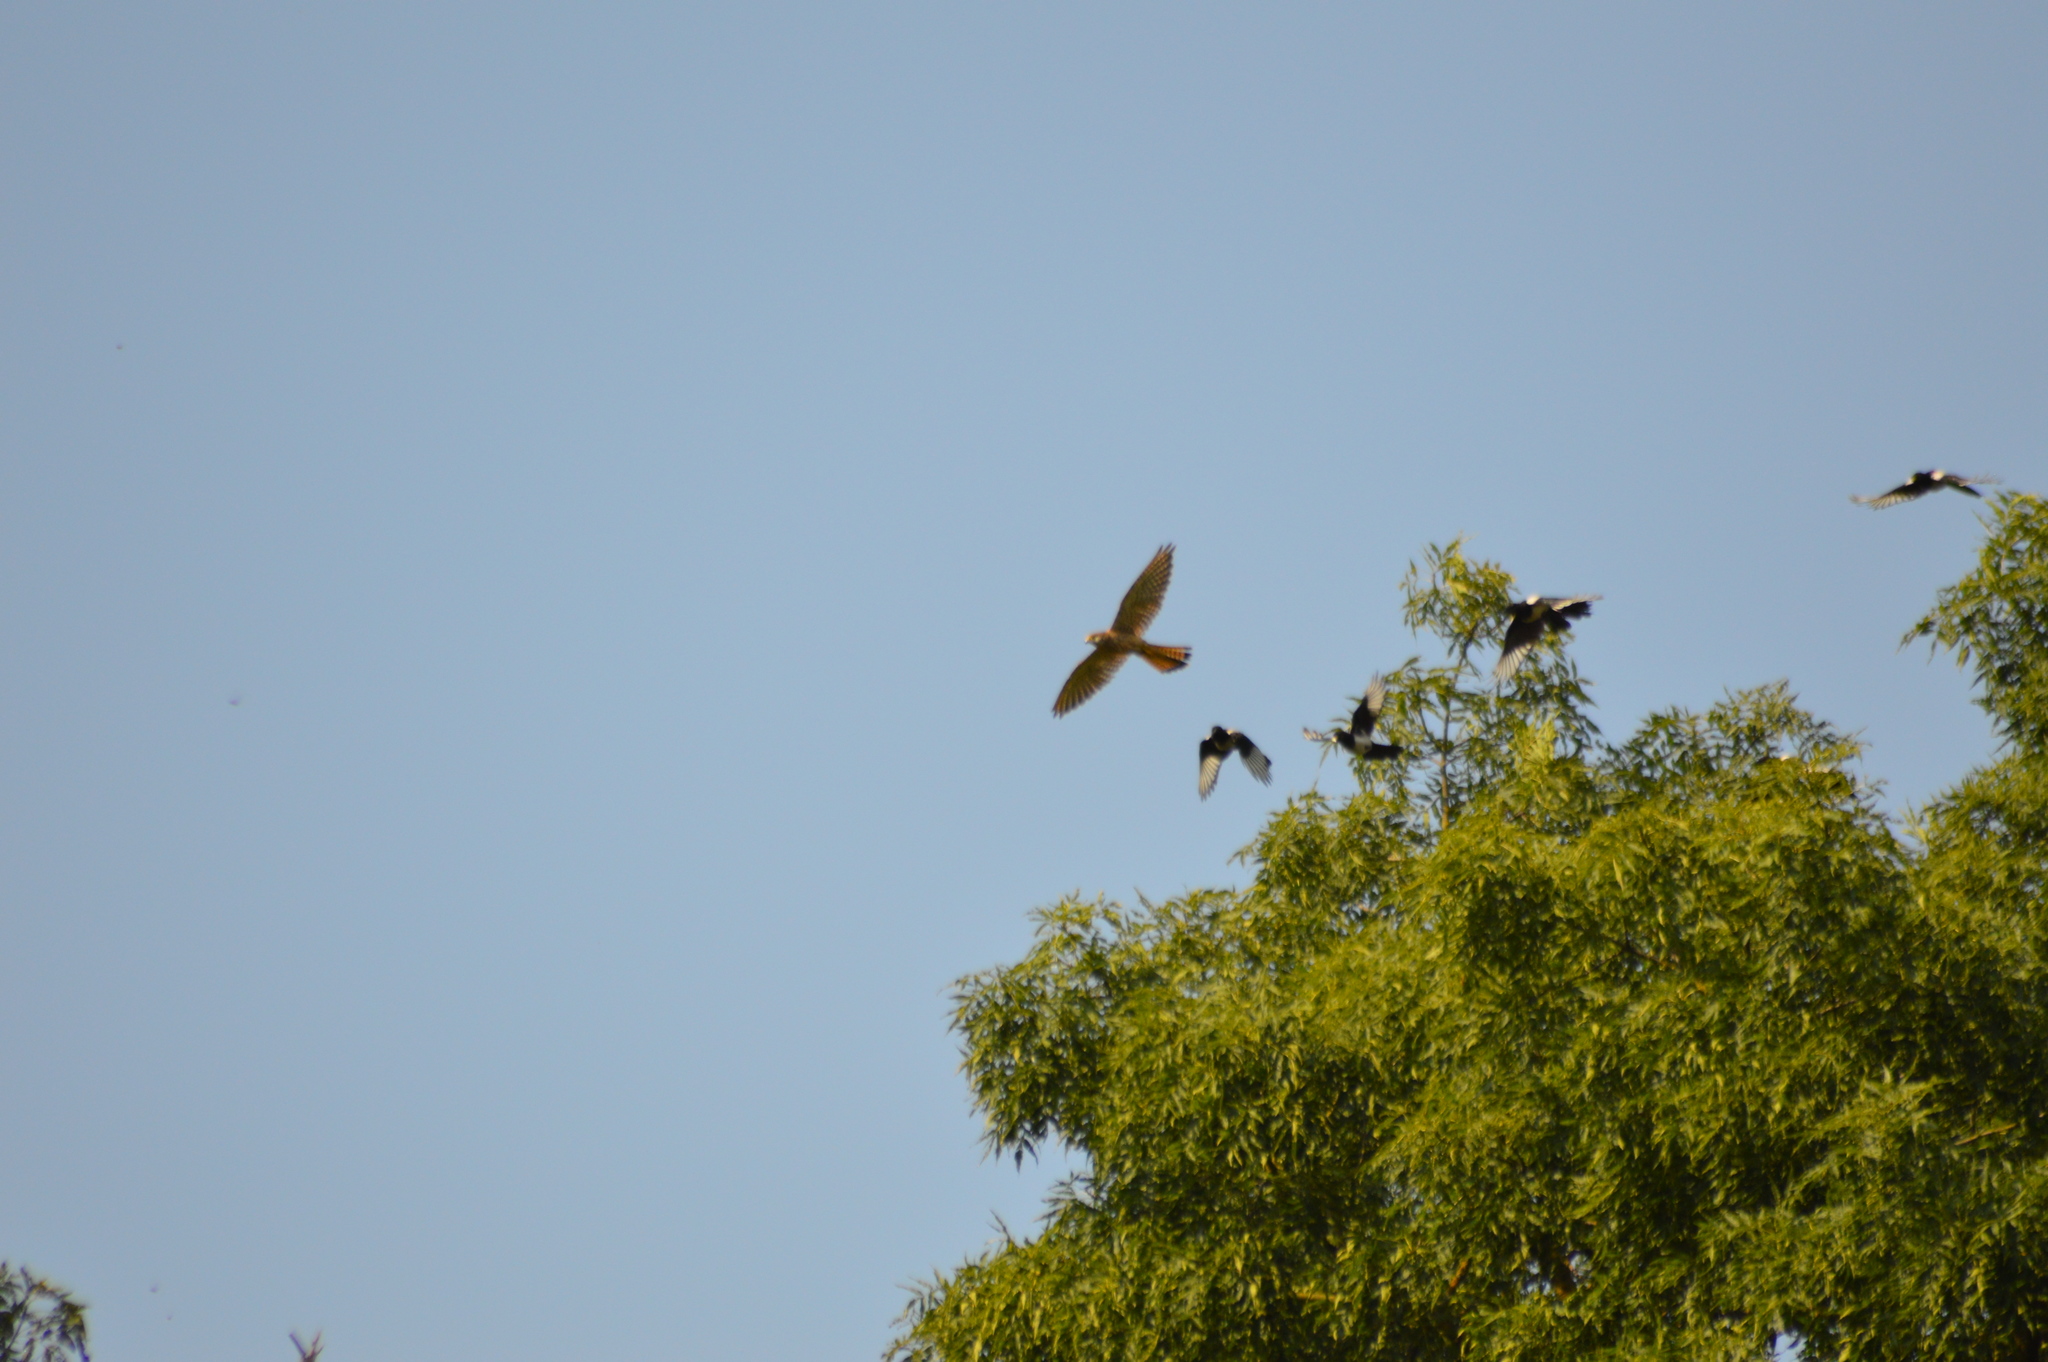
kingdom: Animalia
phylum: Chordata
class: Aves
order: Falconiformes
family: Falconidae
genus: Falco
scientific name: Falco tinnunculus
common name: Common kestrel
